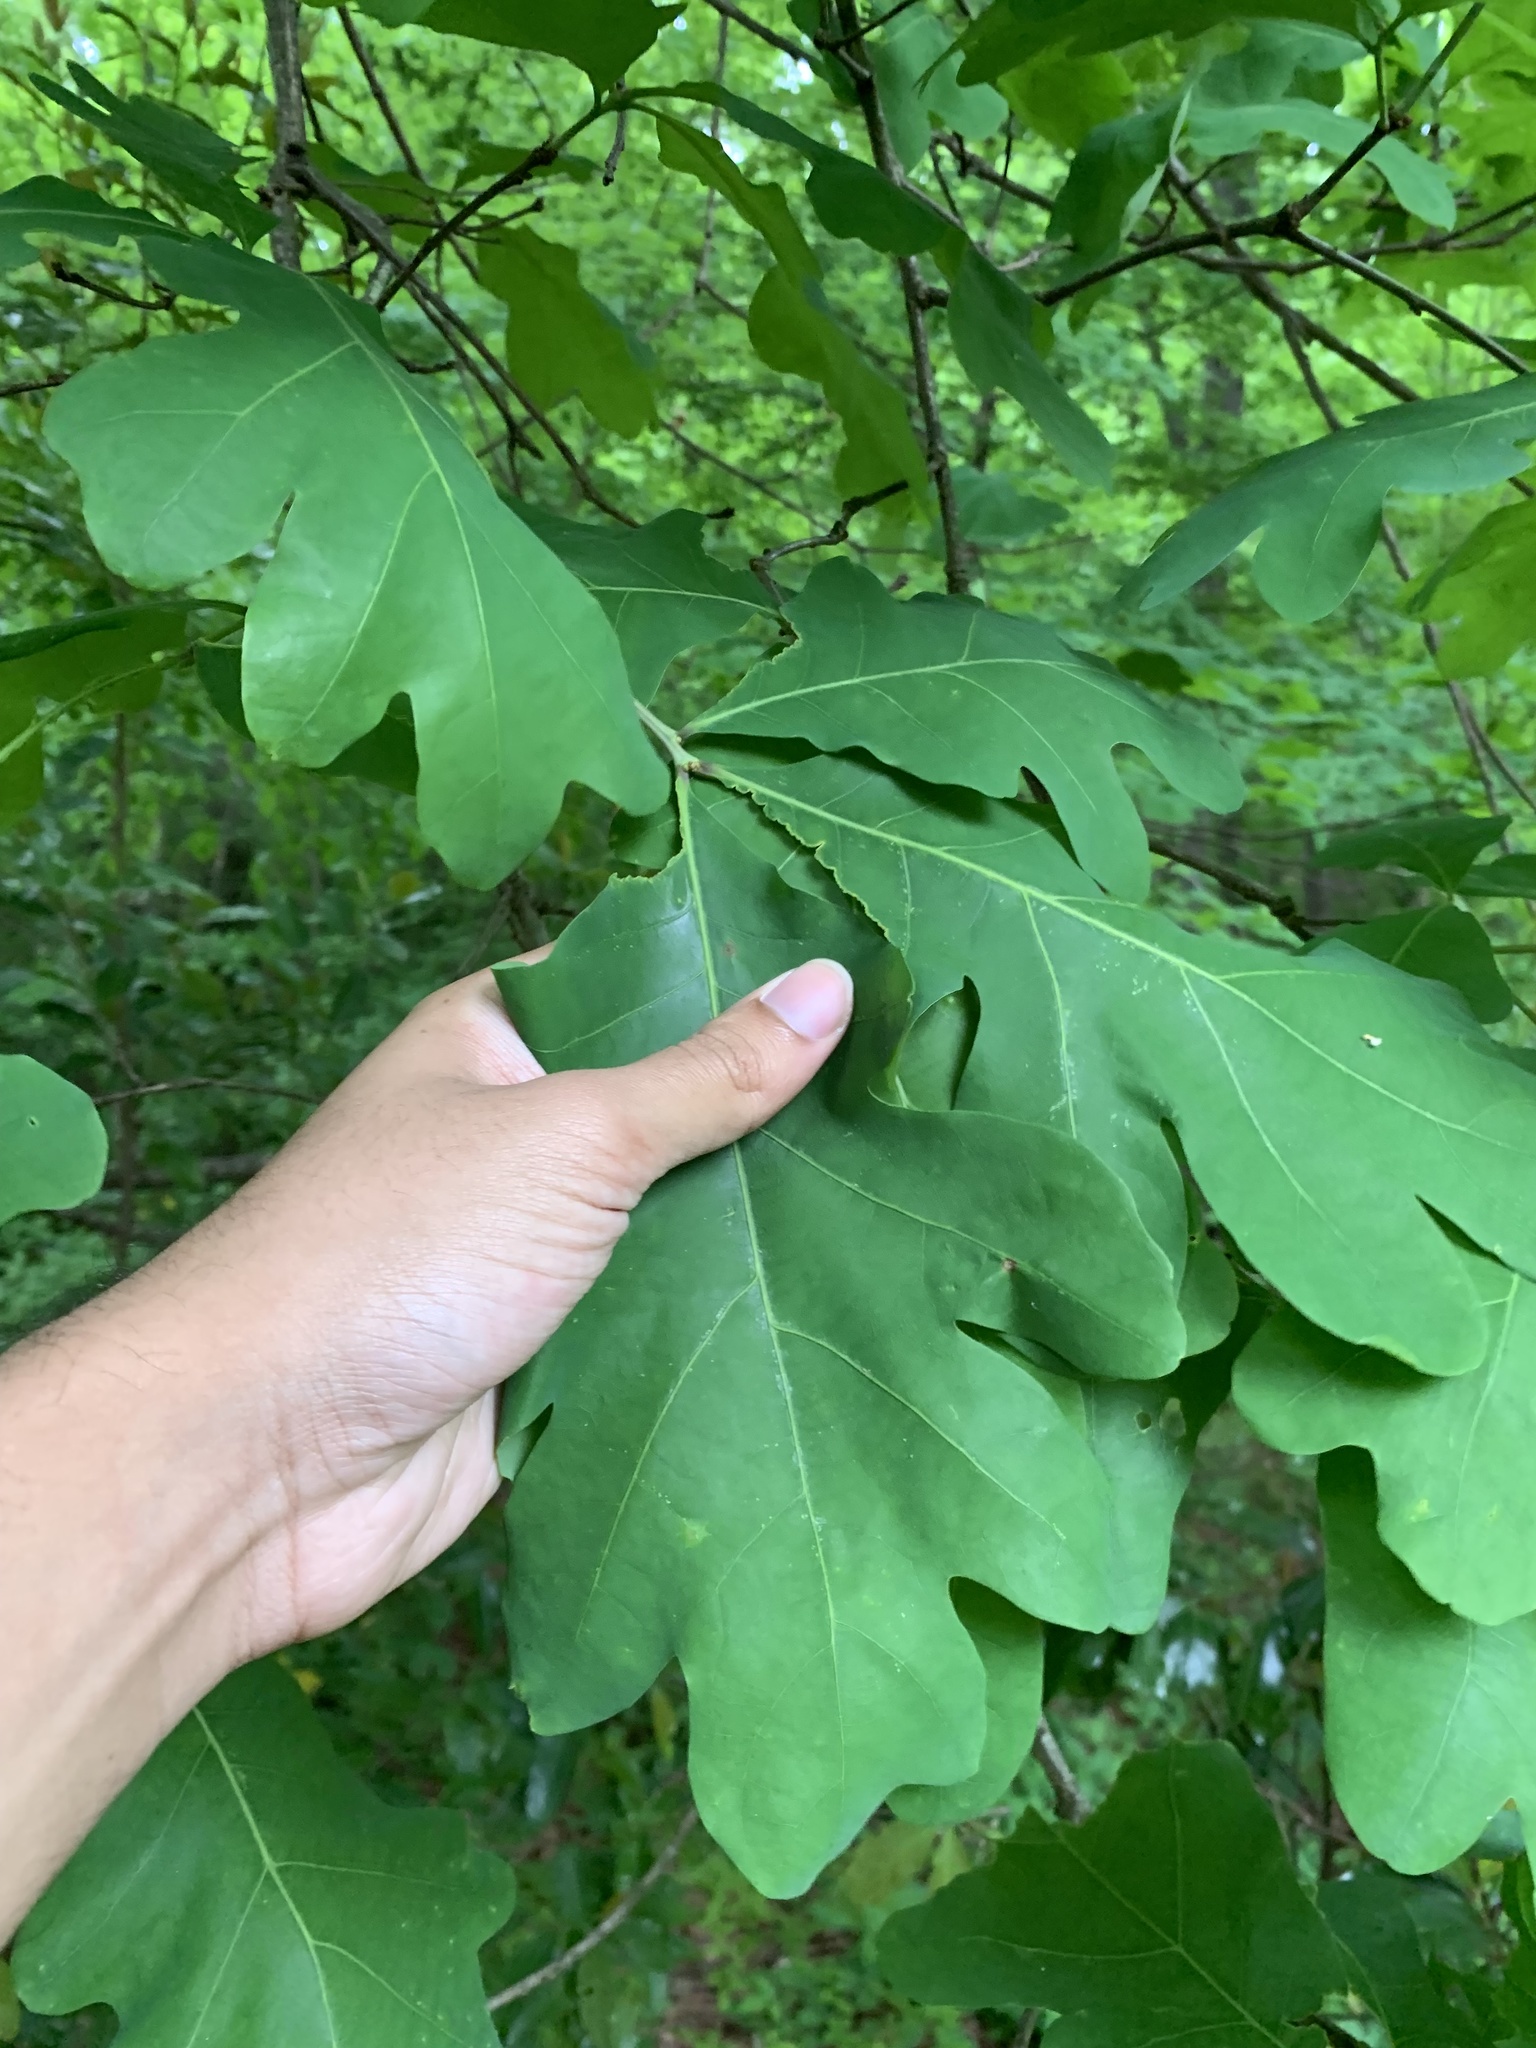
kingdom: Plantae
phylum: Tracheophyta
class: Magnoliopsida
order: Fagales
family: Fagaceae
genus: Quercus
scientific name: Quercus alba
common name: White oak
